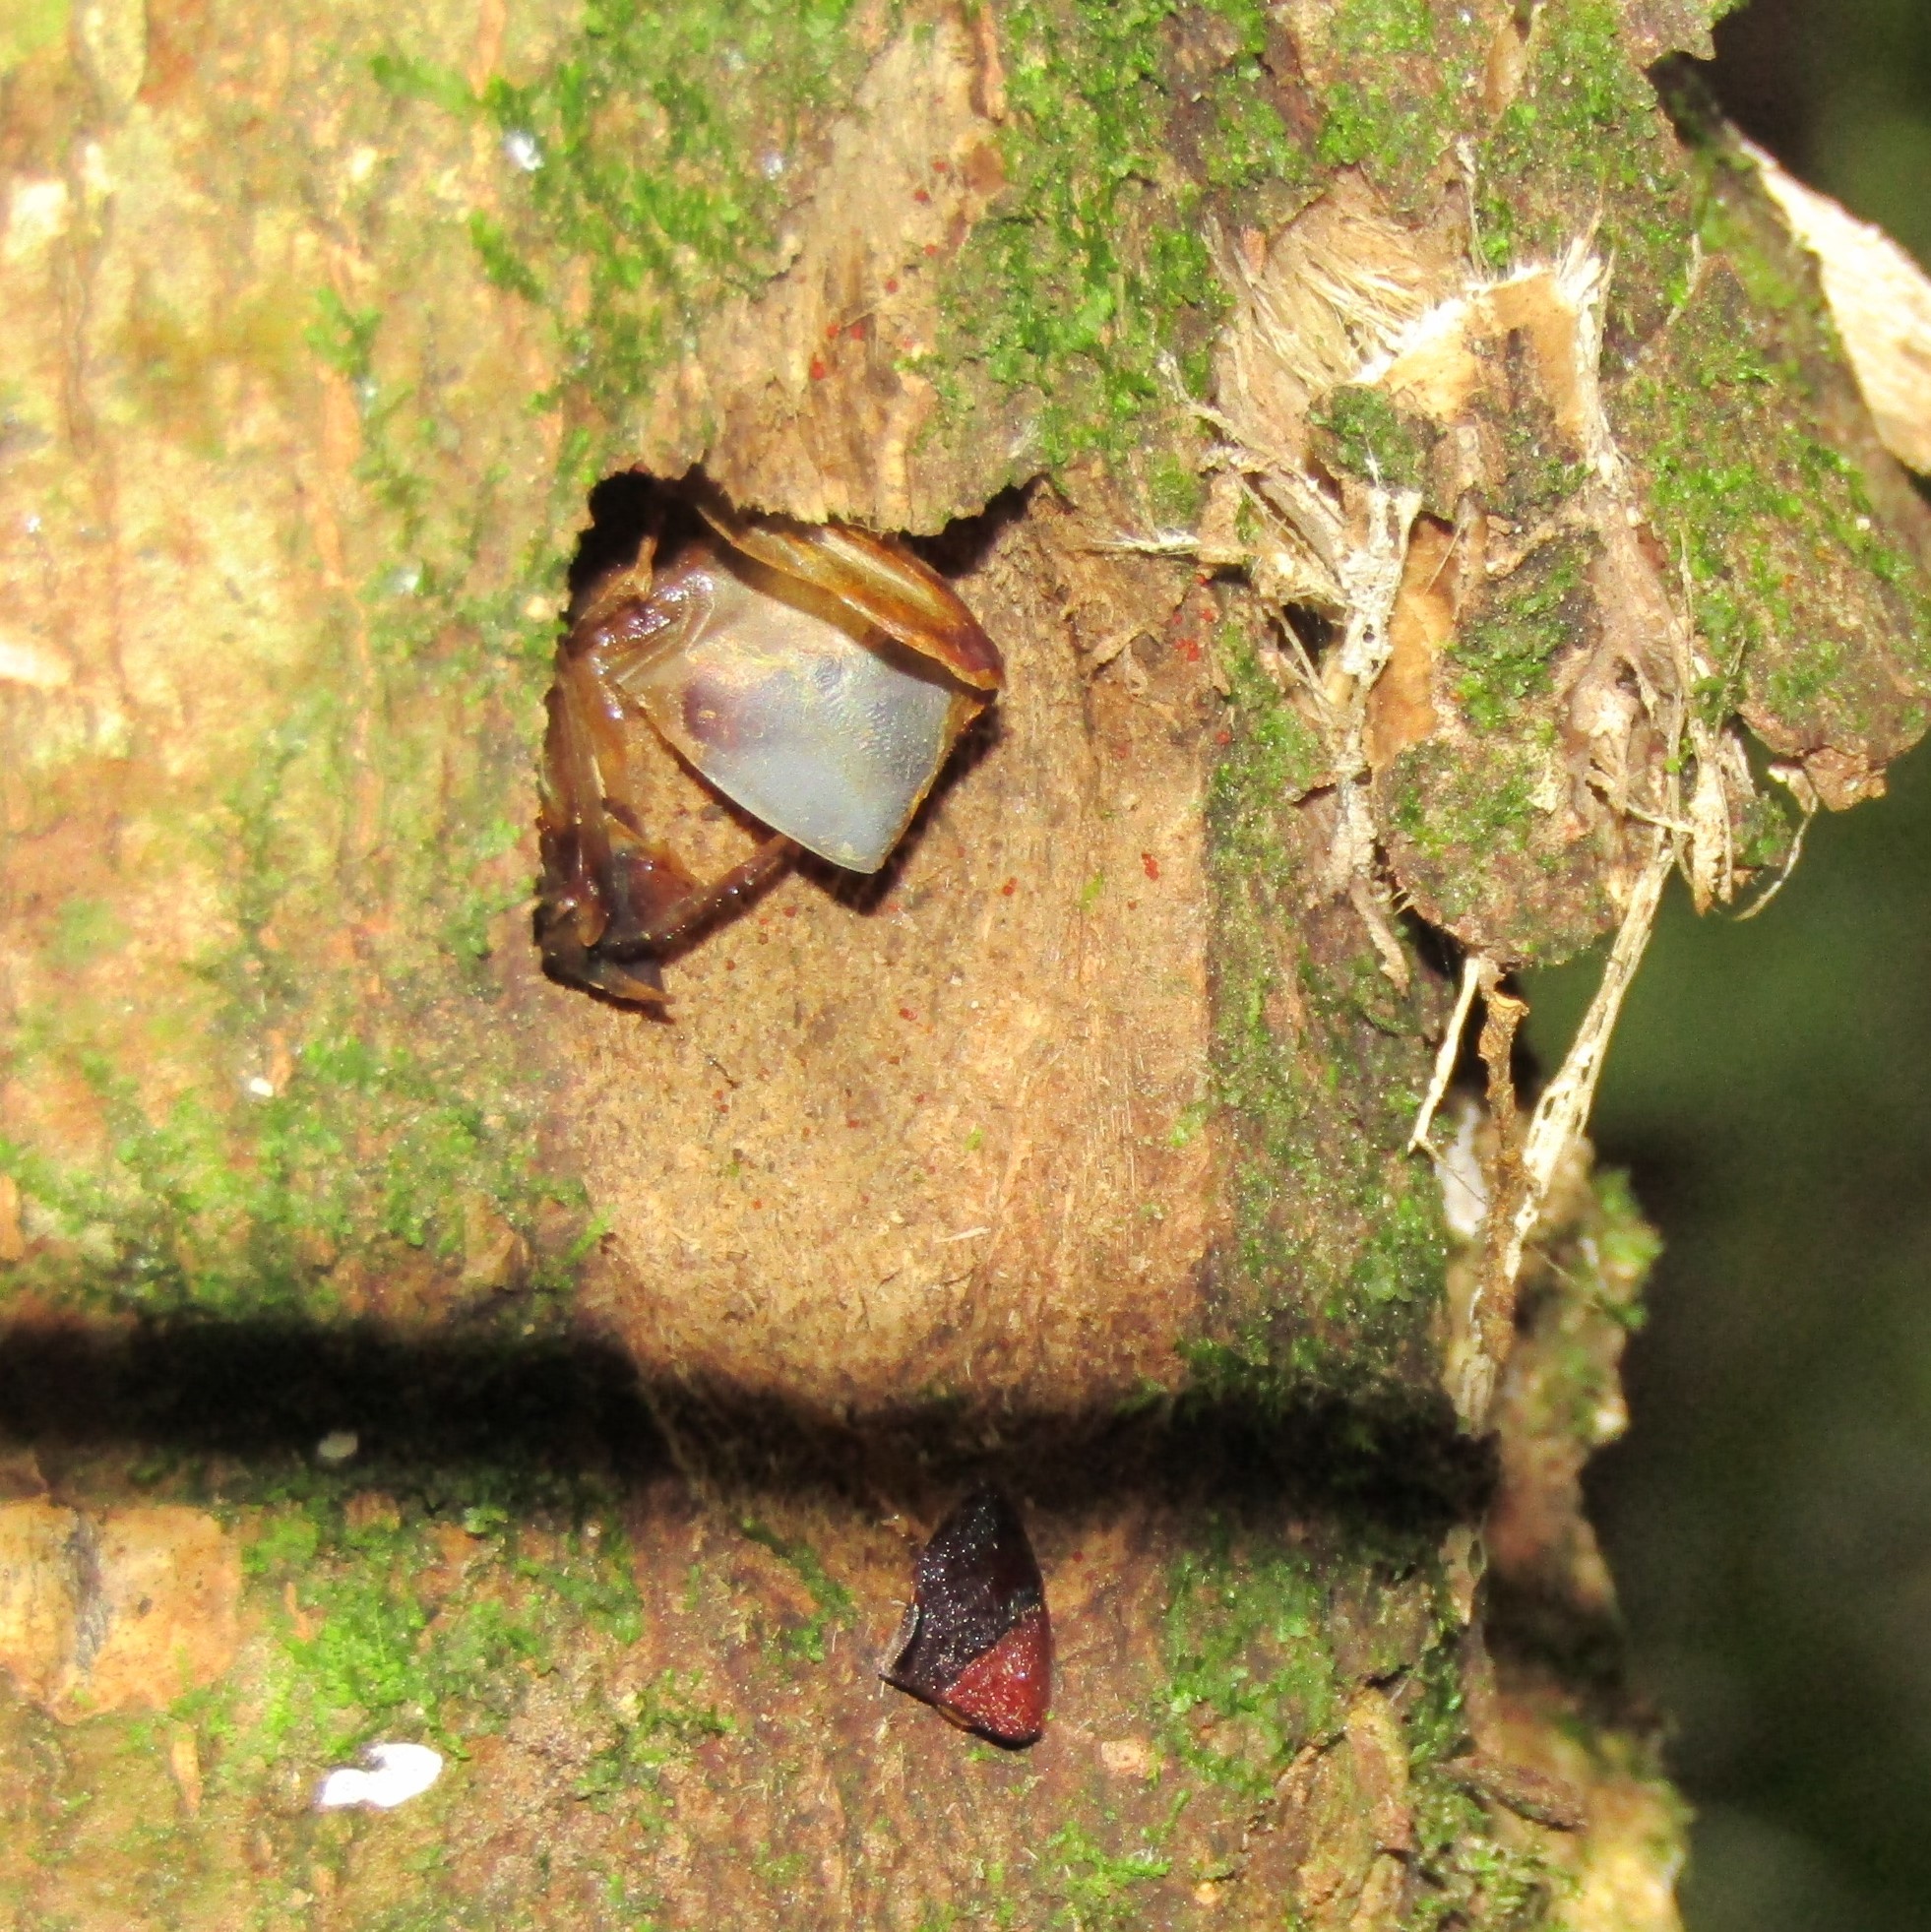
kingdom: Animalia
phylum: Arthropoda
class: Insecta
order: Lepidoptera
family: Hepialidae
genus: Aenetus
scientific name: Aenetus virescens
